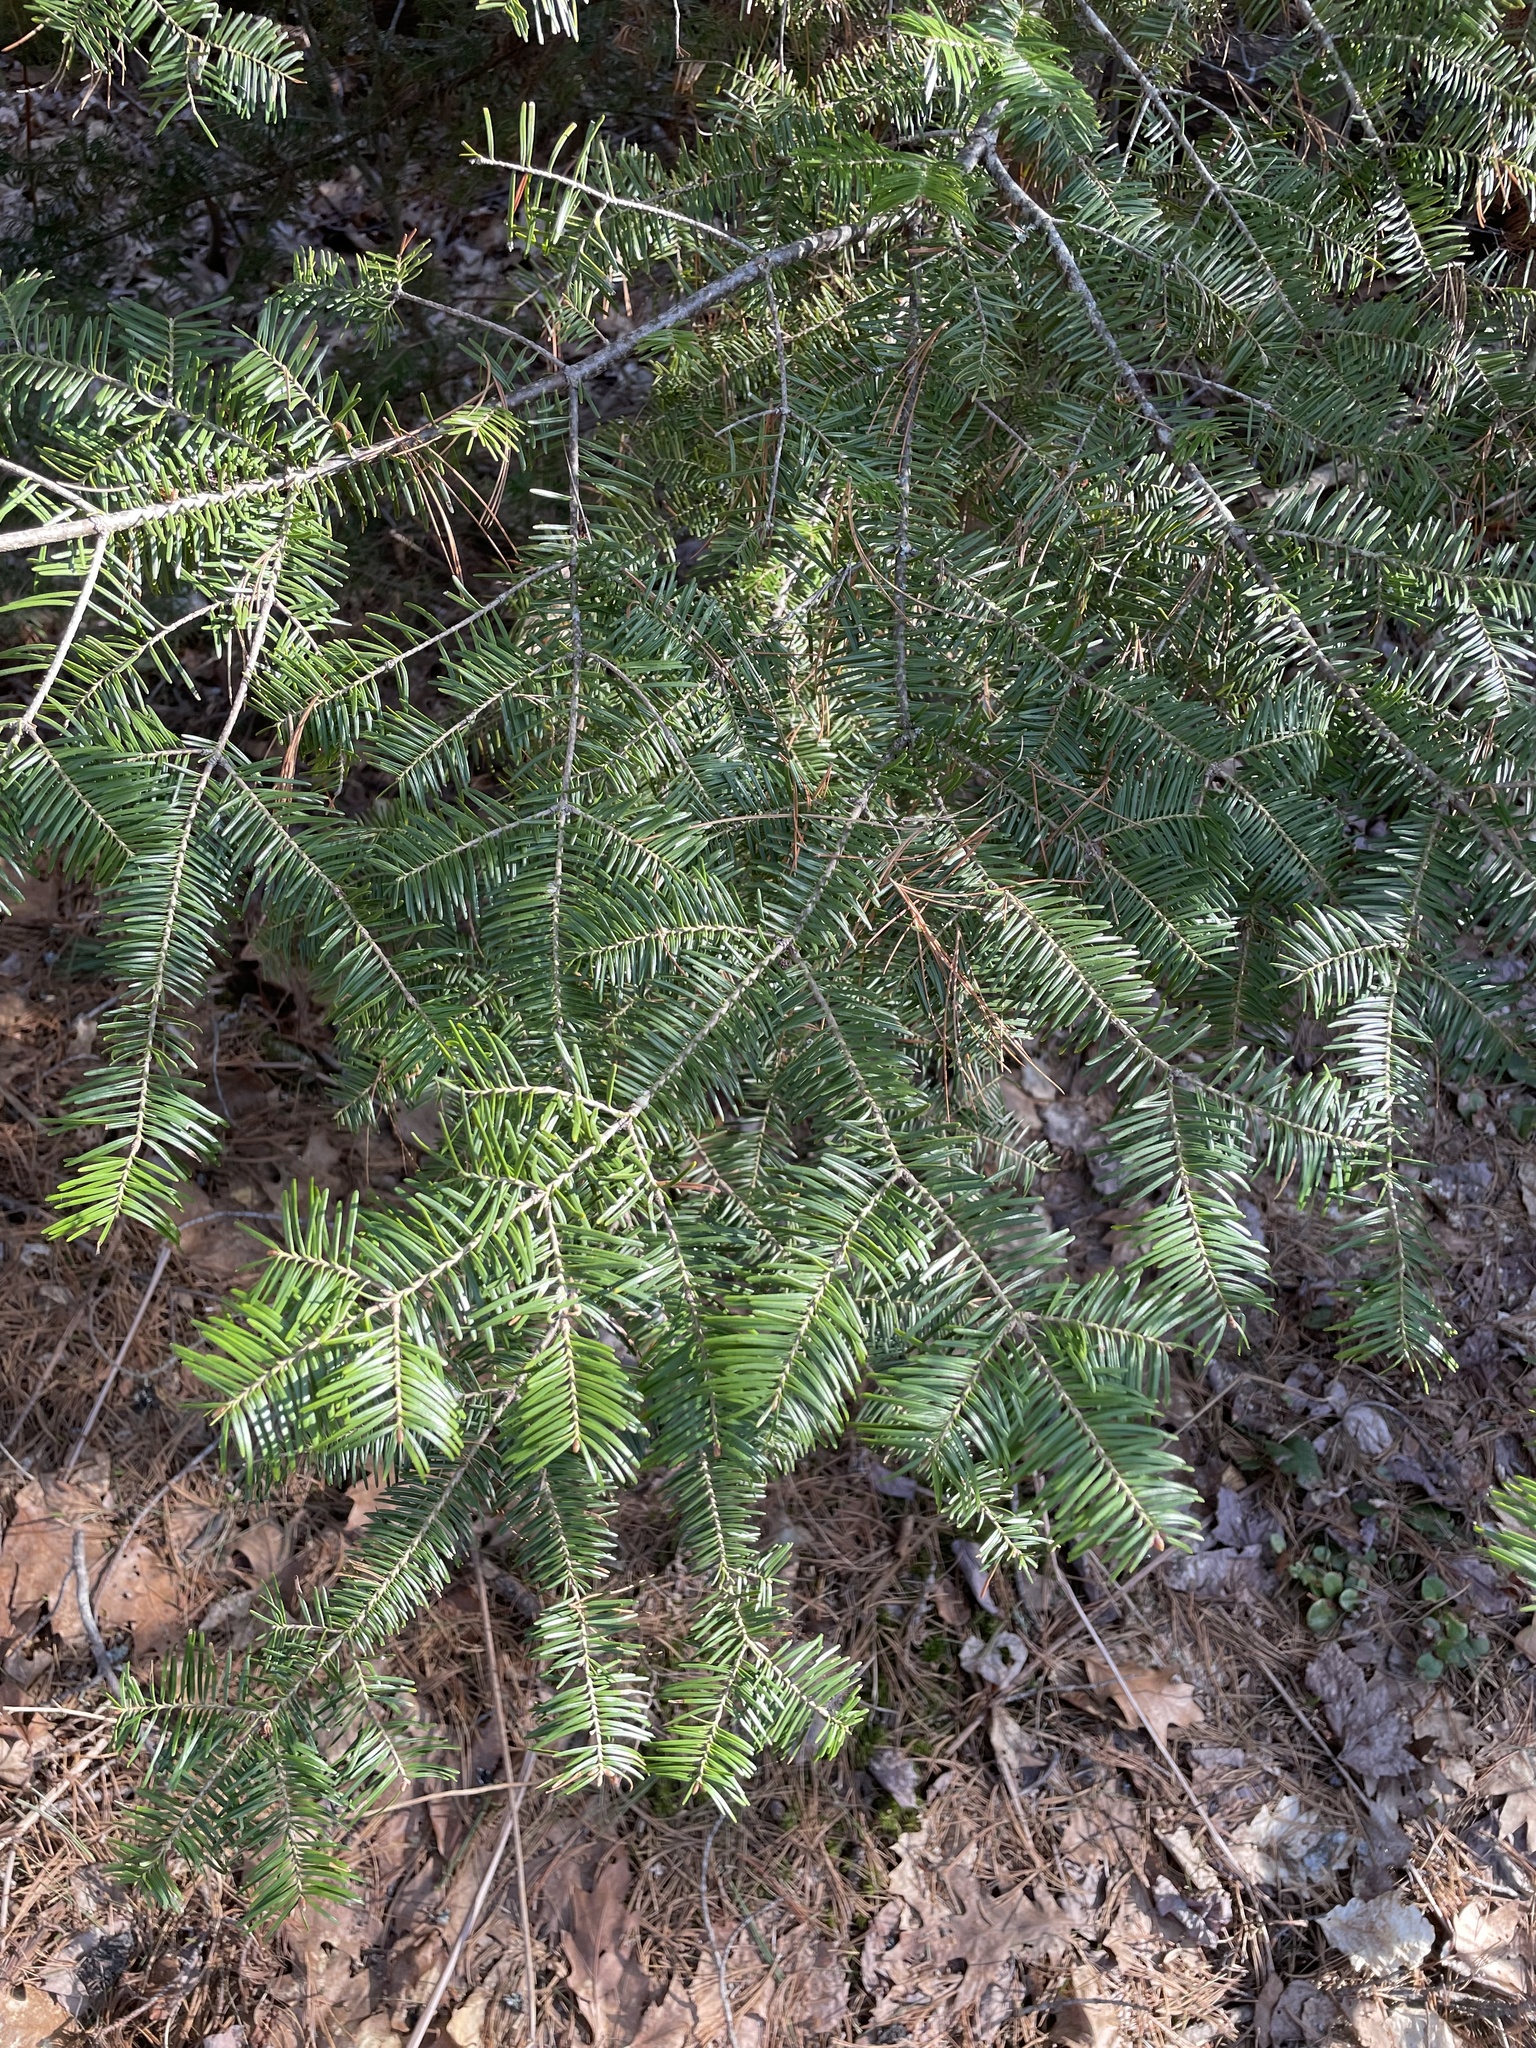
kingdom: Plantae
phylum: Tracheophyta
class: Pinopsida
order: Pinales
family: Pinaceae
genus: Abies
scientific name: Abies balsamea
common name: Balsam fir
